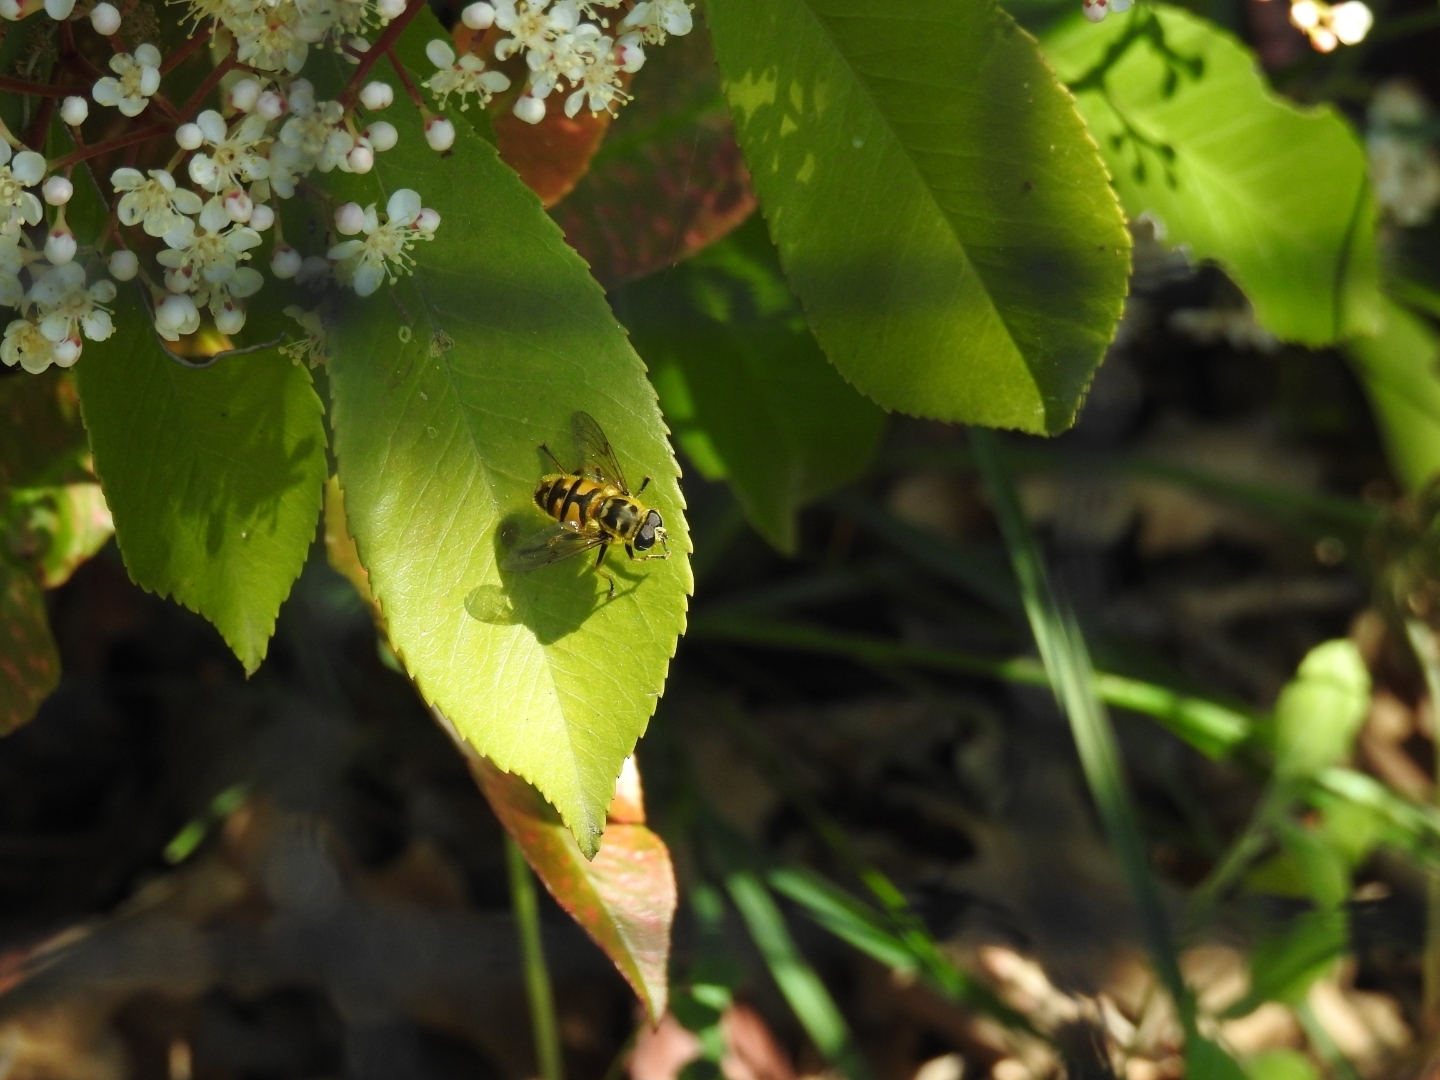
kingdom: Animalia
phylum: Arthropoda
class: Insecta
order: Diptera
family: Syrphidae
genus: Myathropa
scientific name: Myathropa florea
